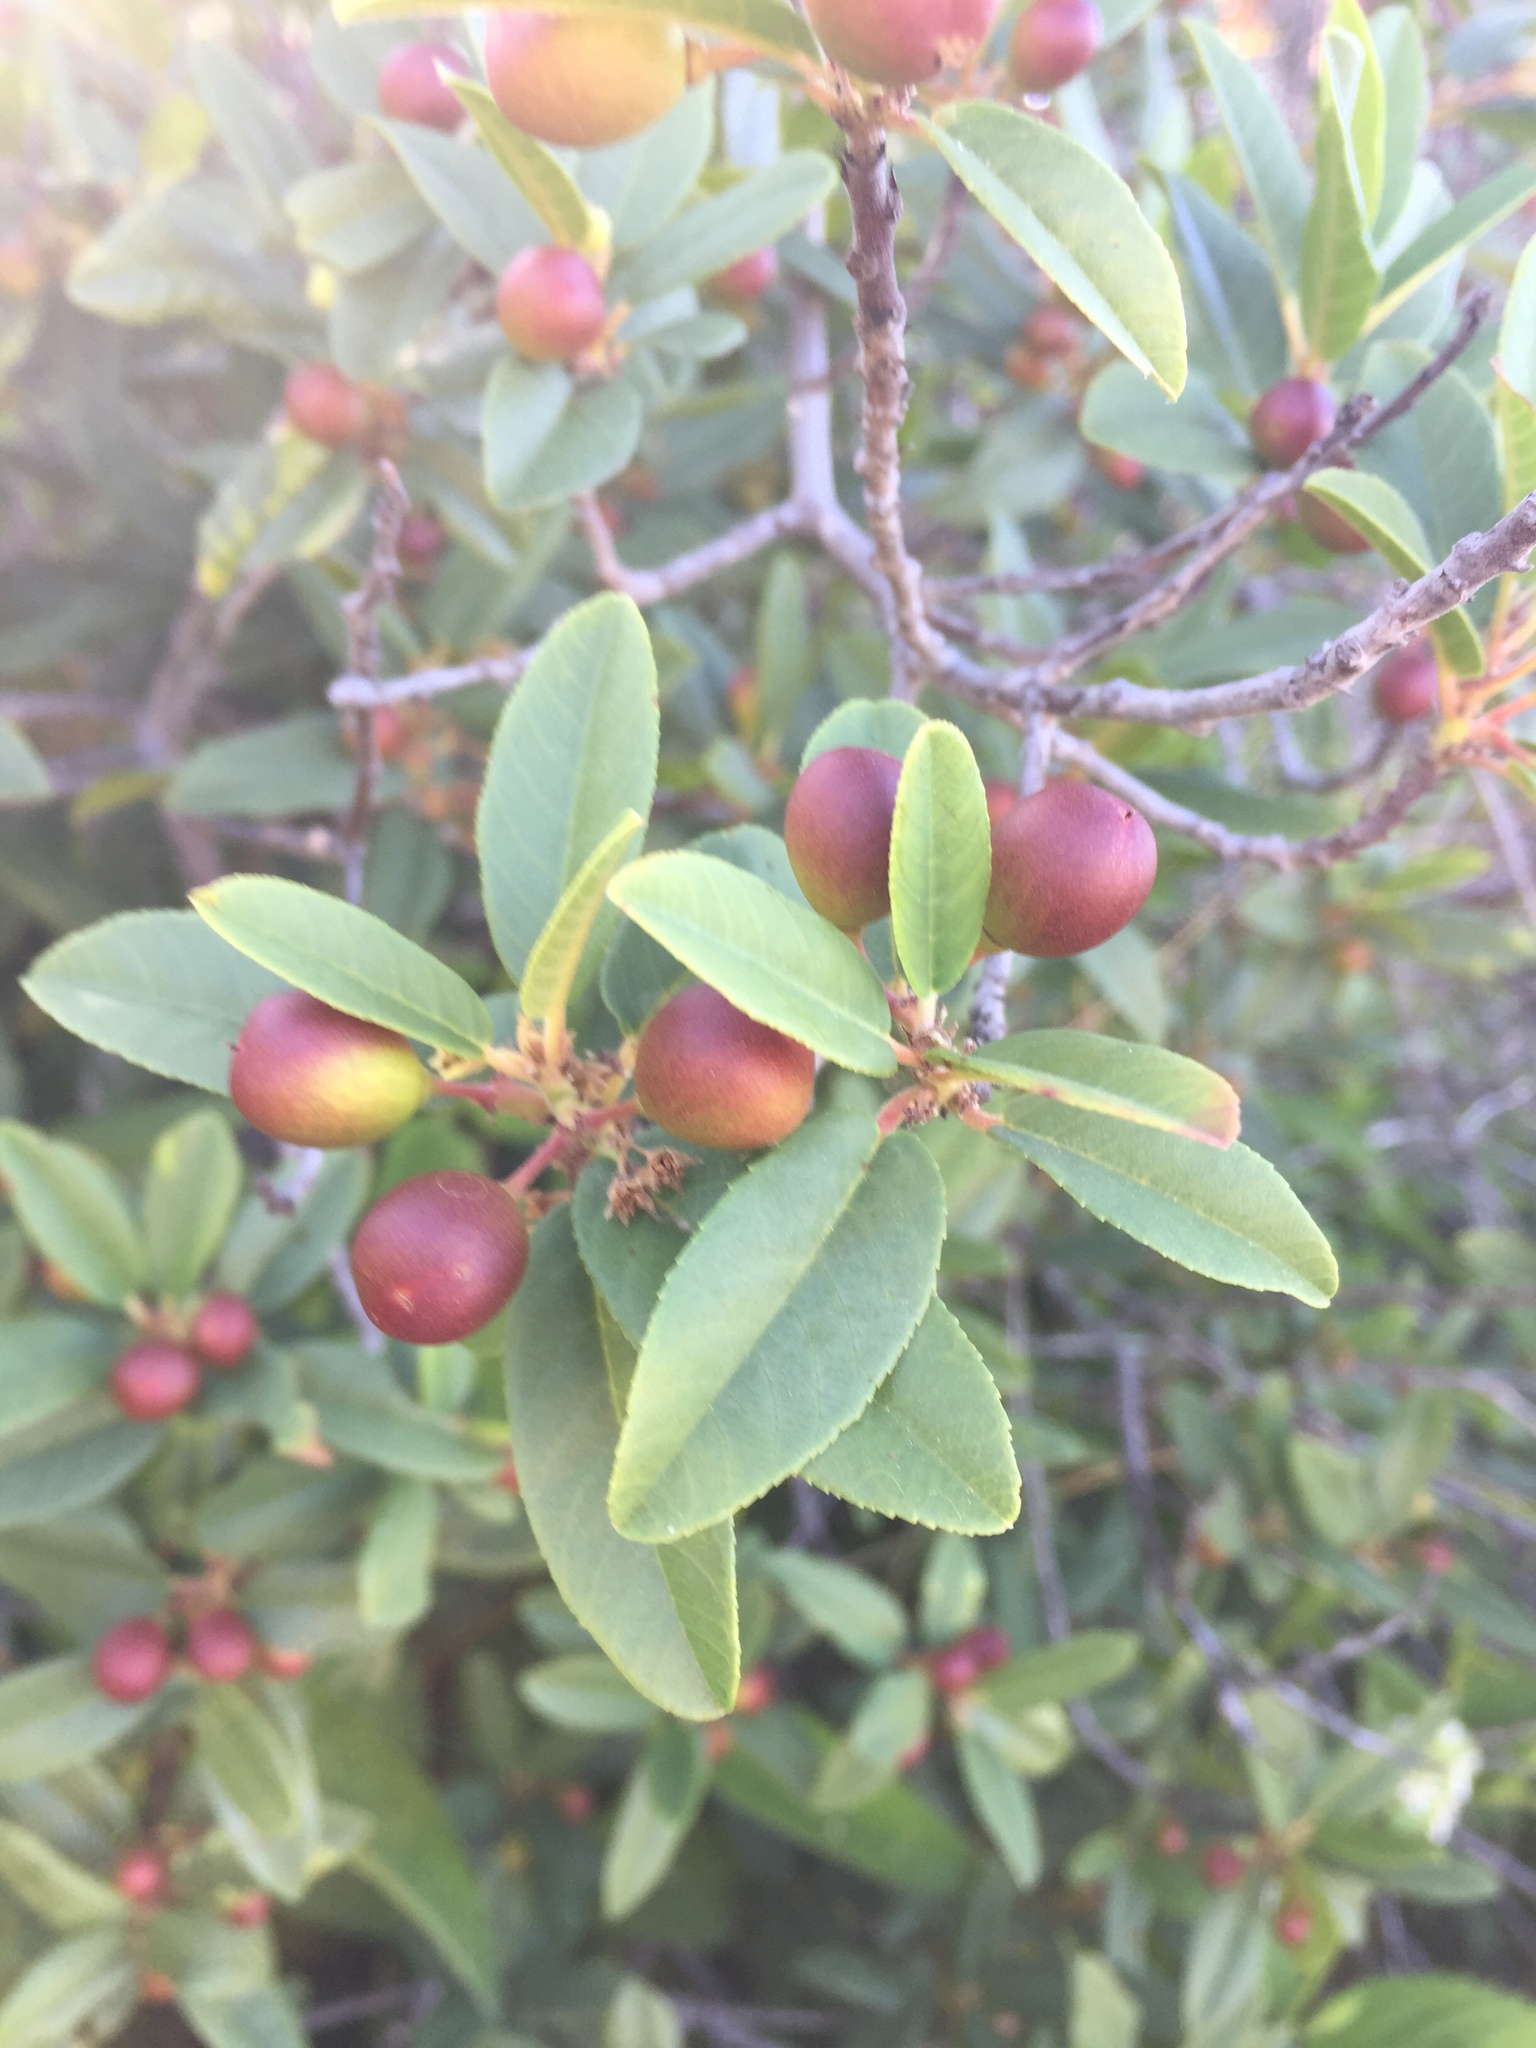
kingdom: Plantae
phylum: Tracheophyta
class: Magnoliopsida
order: Rosales
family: Rhamnaceae
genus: Frangula
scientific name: Frangula californica
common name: California buckthorn
